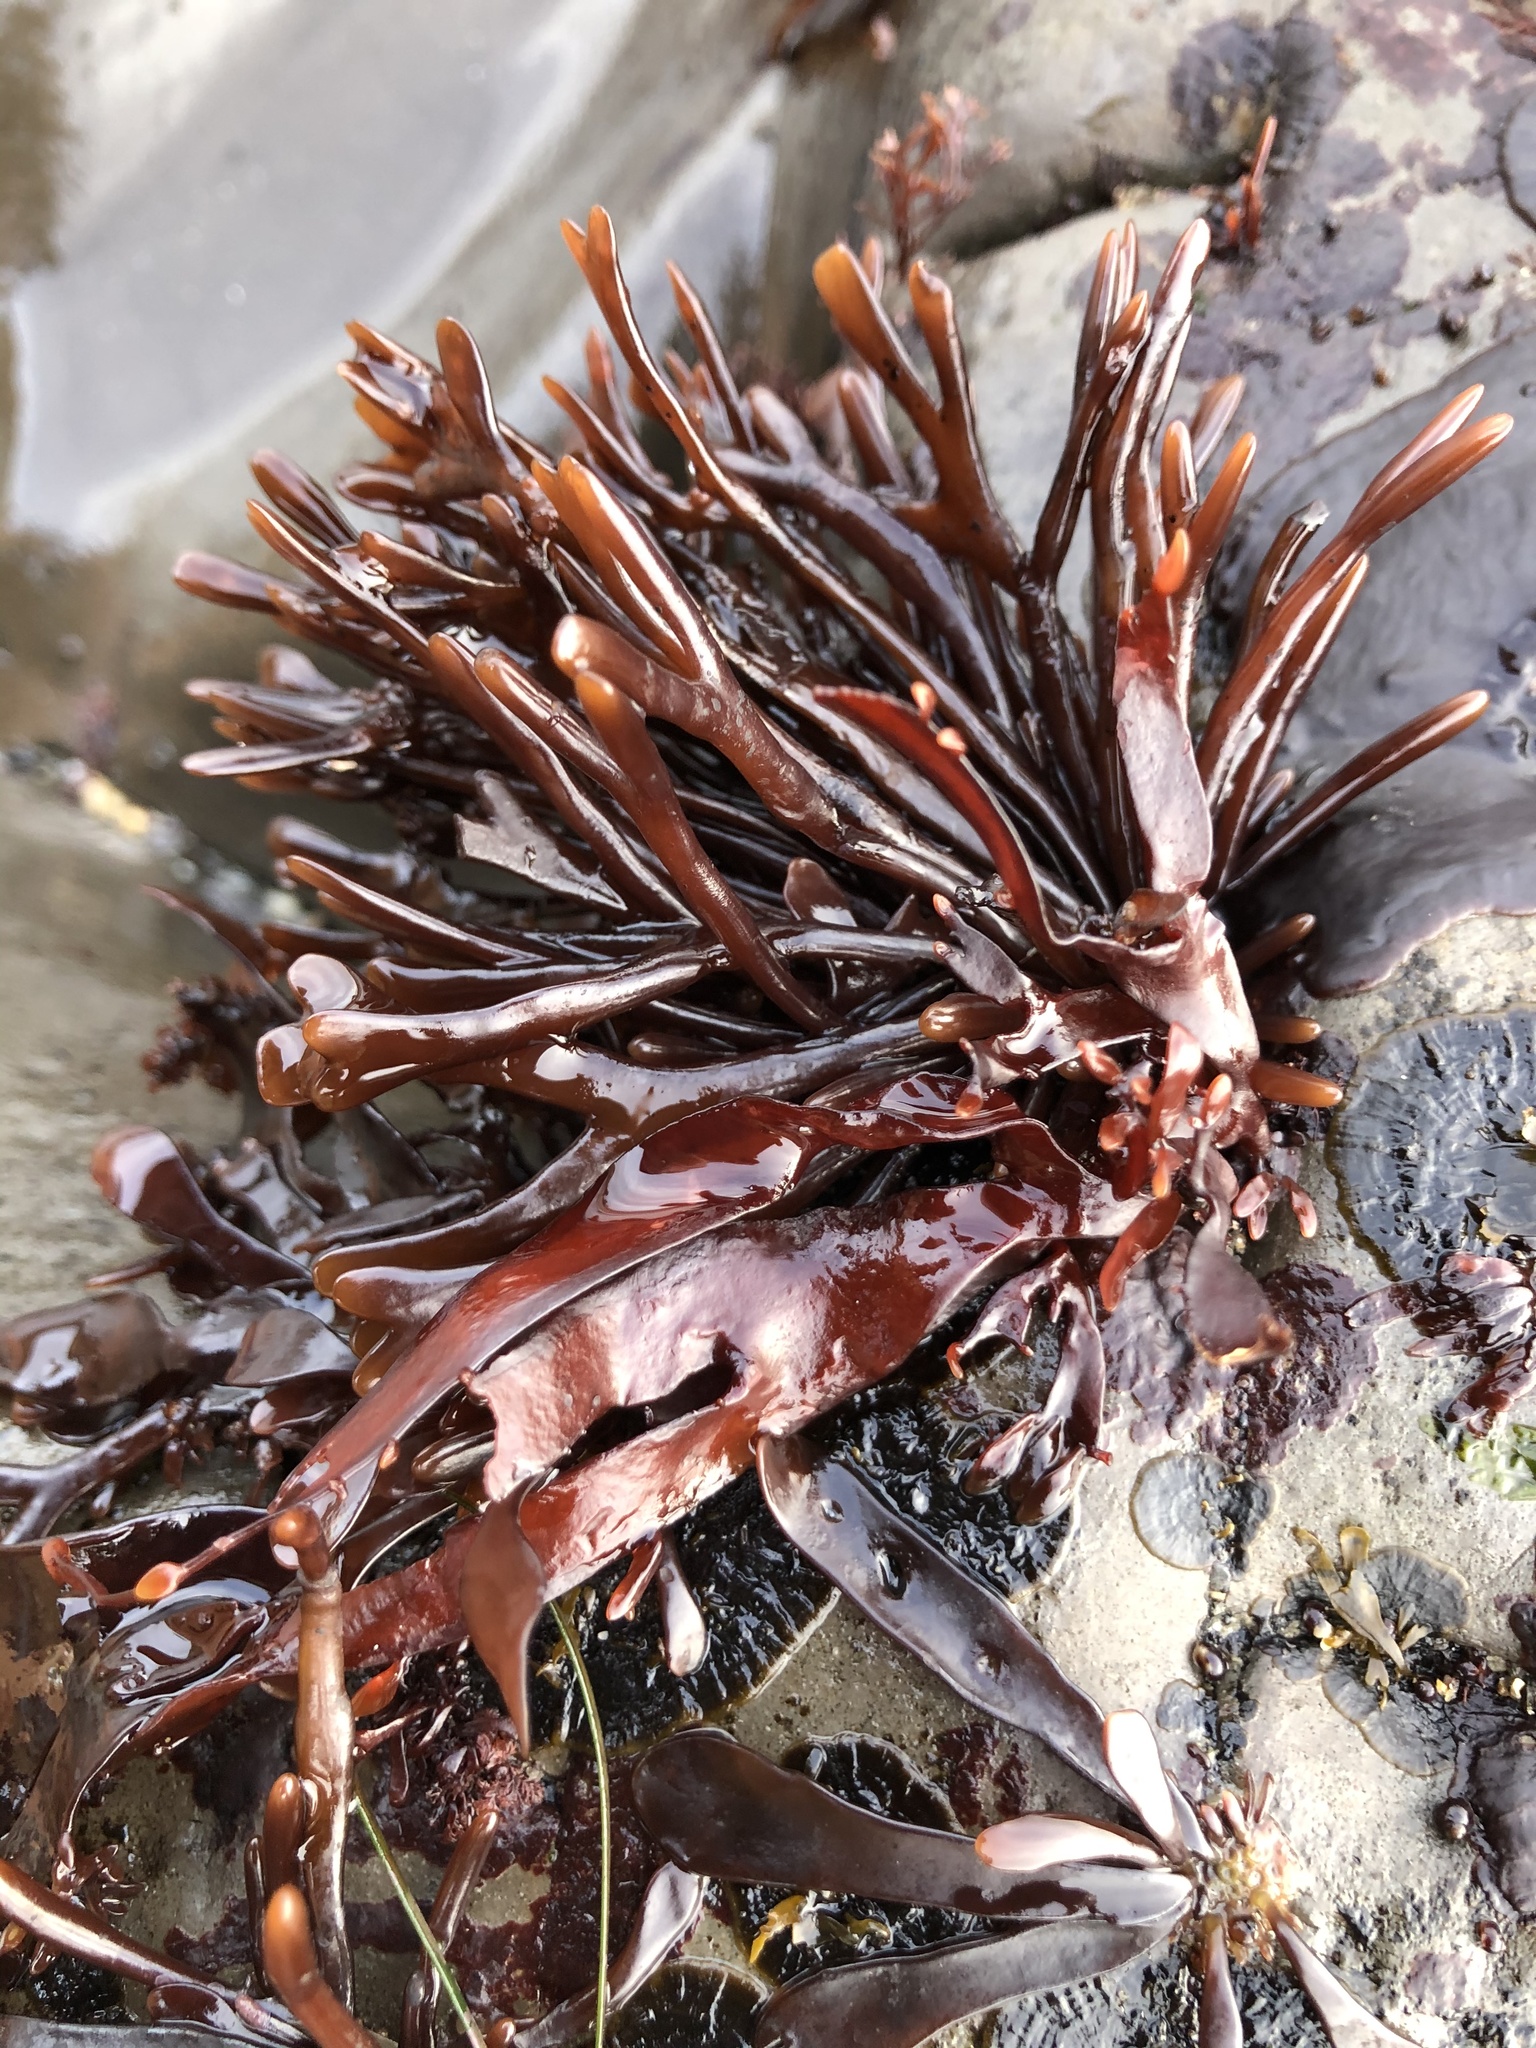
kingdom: Plantae
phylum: Rhodophyta
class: Florideophyceae
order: Gigartinales
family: Phyllophoraceae
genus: Ahnfeltiopsis
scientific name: Ahnfeltiopsis linearis
